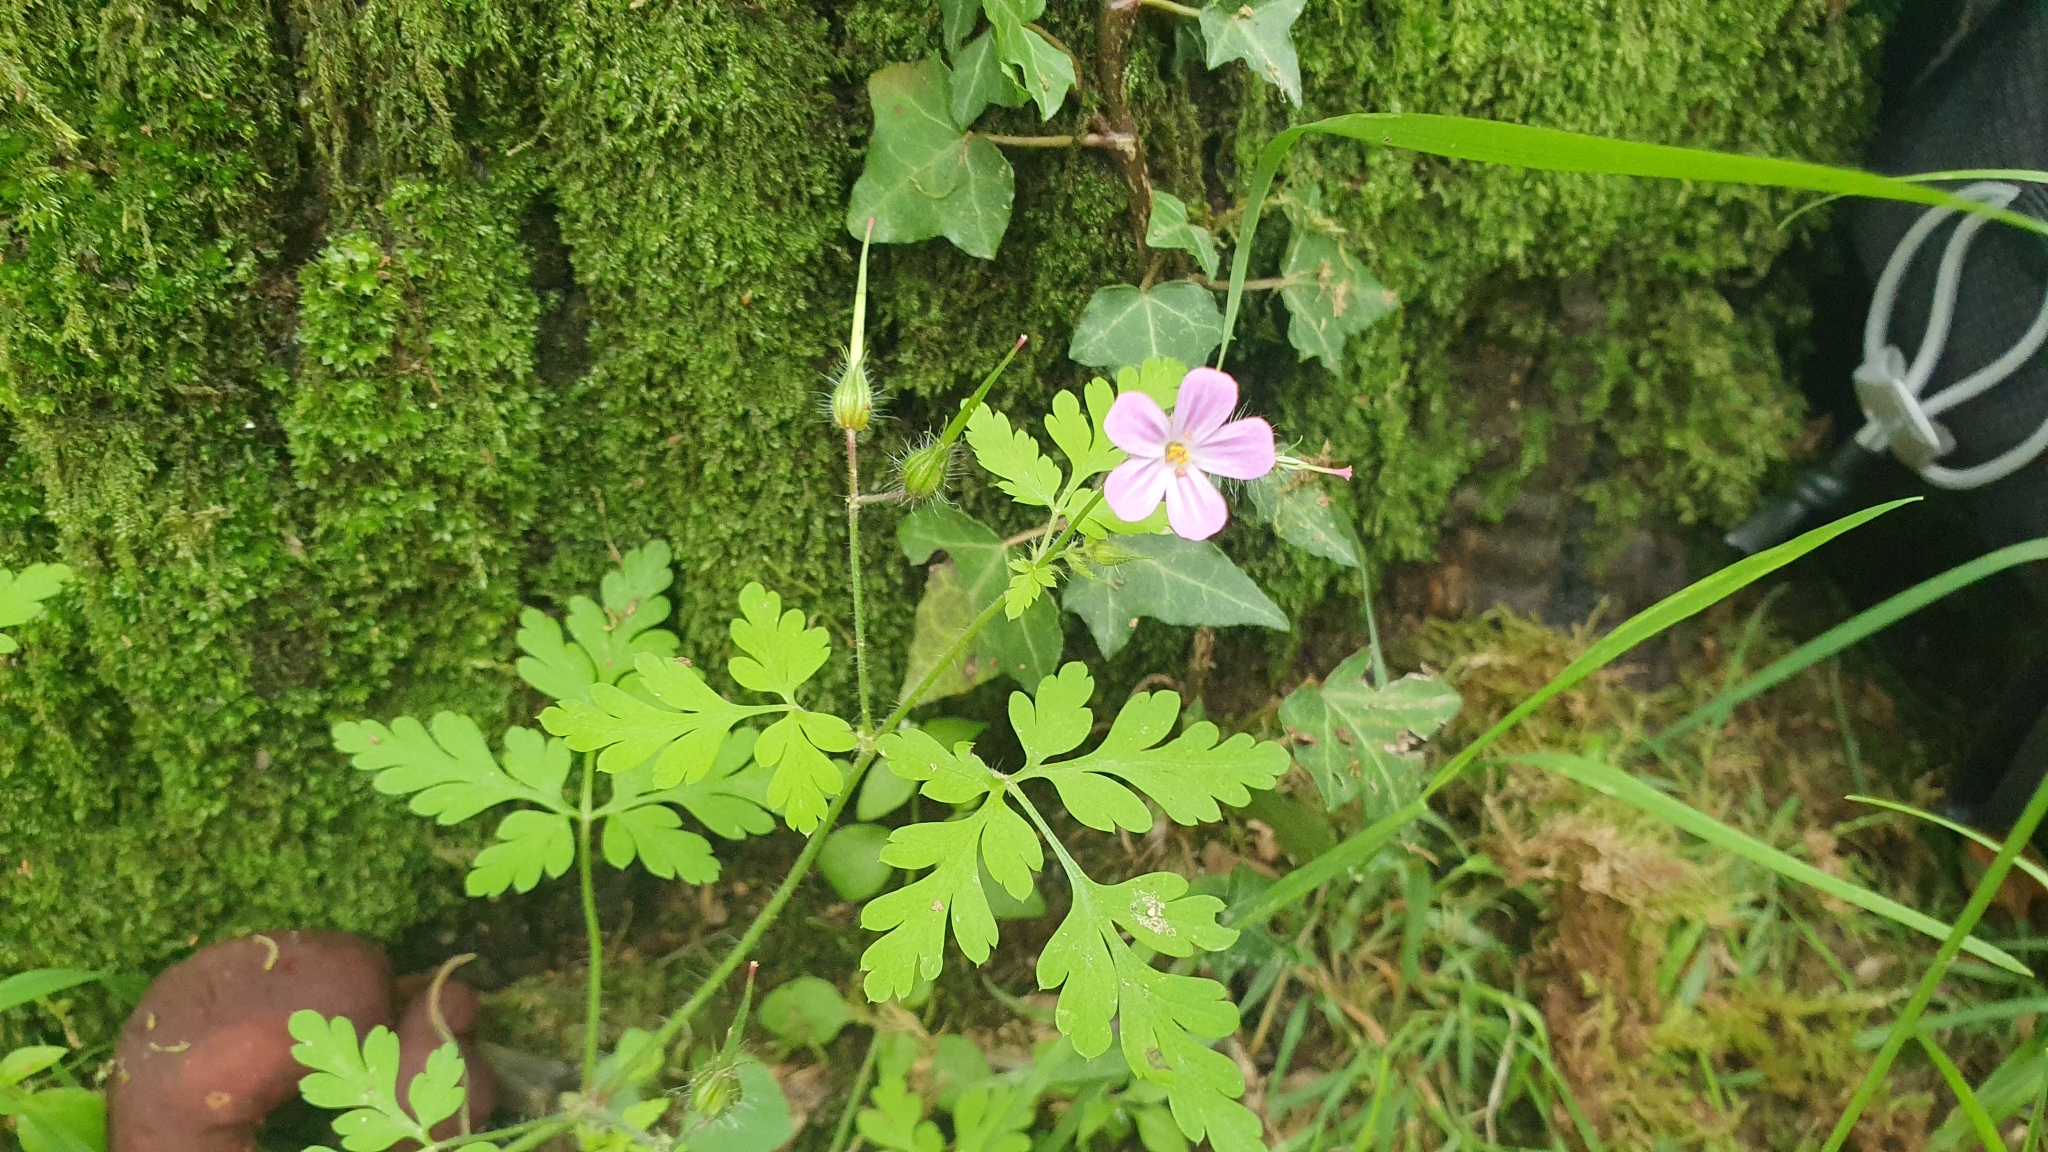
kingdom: Plantae
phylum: Tracheophyta
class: Magnoliopsida
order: Geraniales
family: Geraniaceae
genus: Geranium
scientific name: Geranium robertianum
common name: Herb-robert
